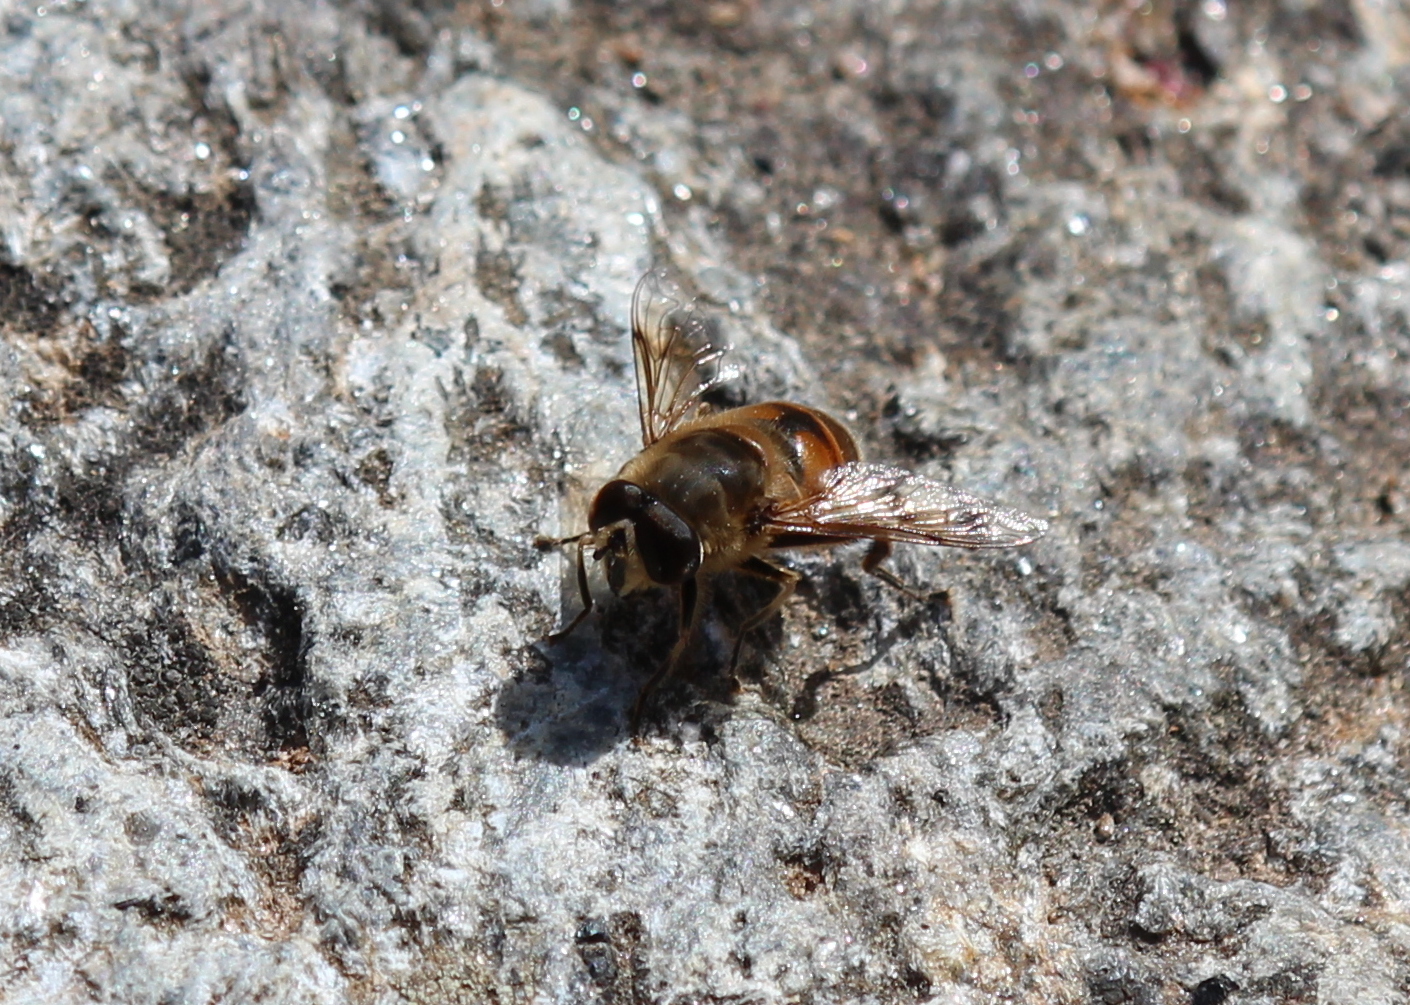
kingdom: Animalia
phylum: Arthropoda
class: Insecta
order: Diptera
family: Syrphidae
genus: Eristalis
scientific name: Eristalis tenax
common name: Drone fly
